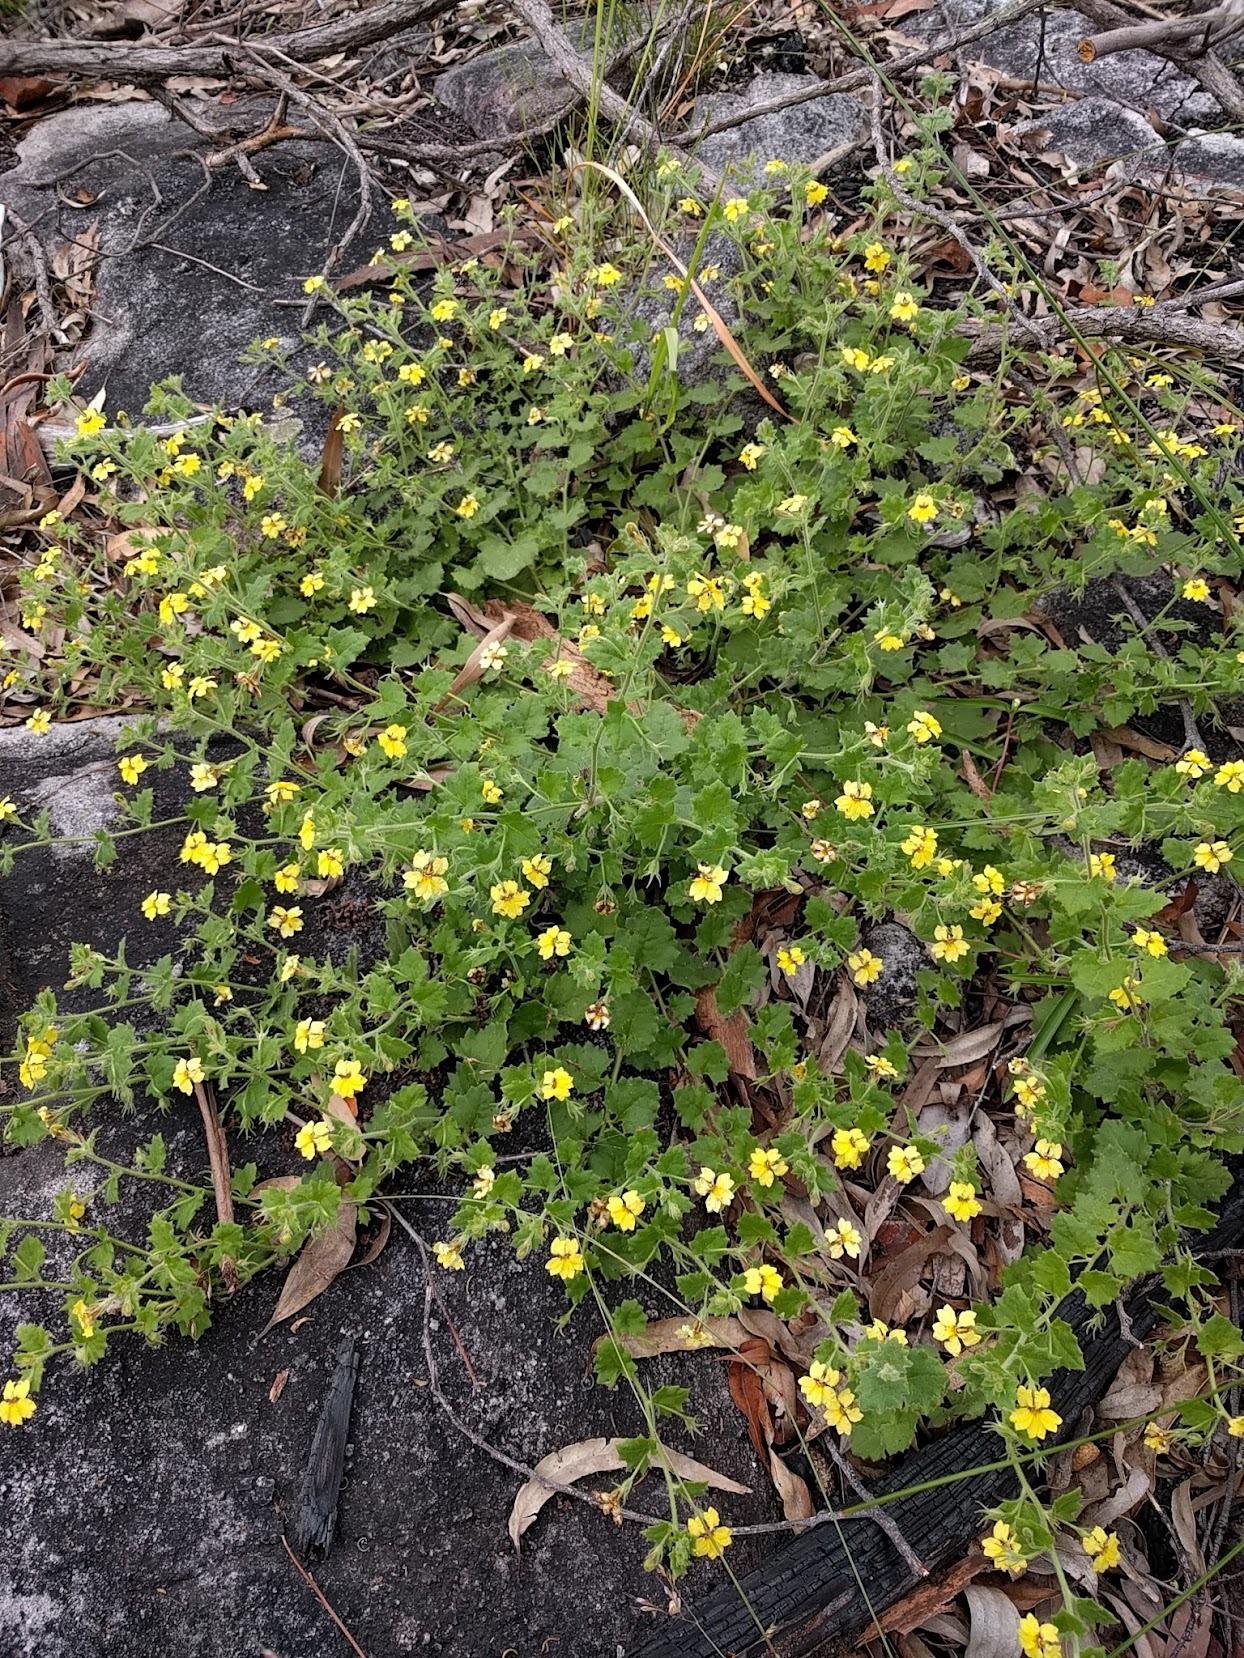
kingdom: Plantae
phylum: Tracheophyta
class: Magnoliopsida
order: Asterales
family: Goodeniaceae
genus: Goodenia
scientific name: Goodenia rotundifolia
